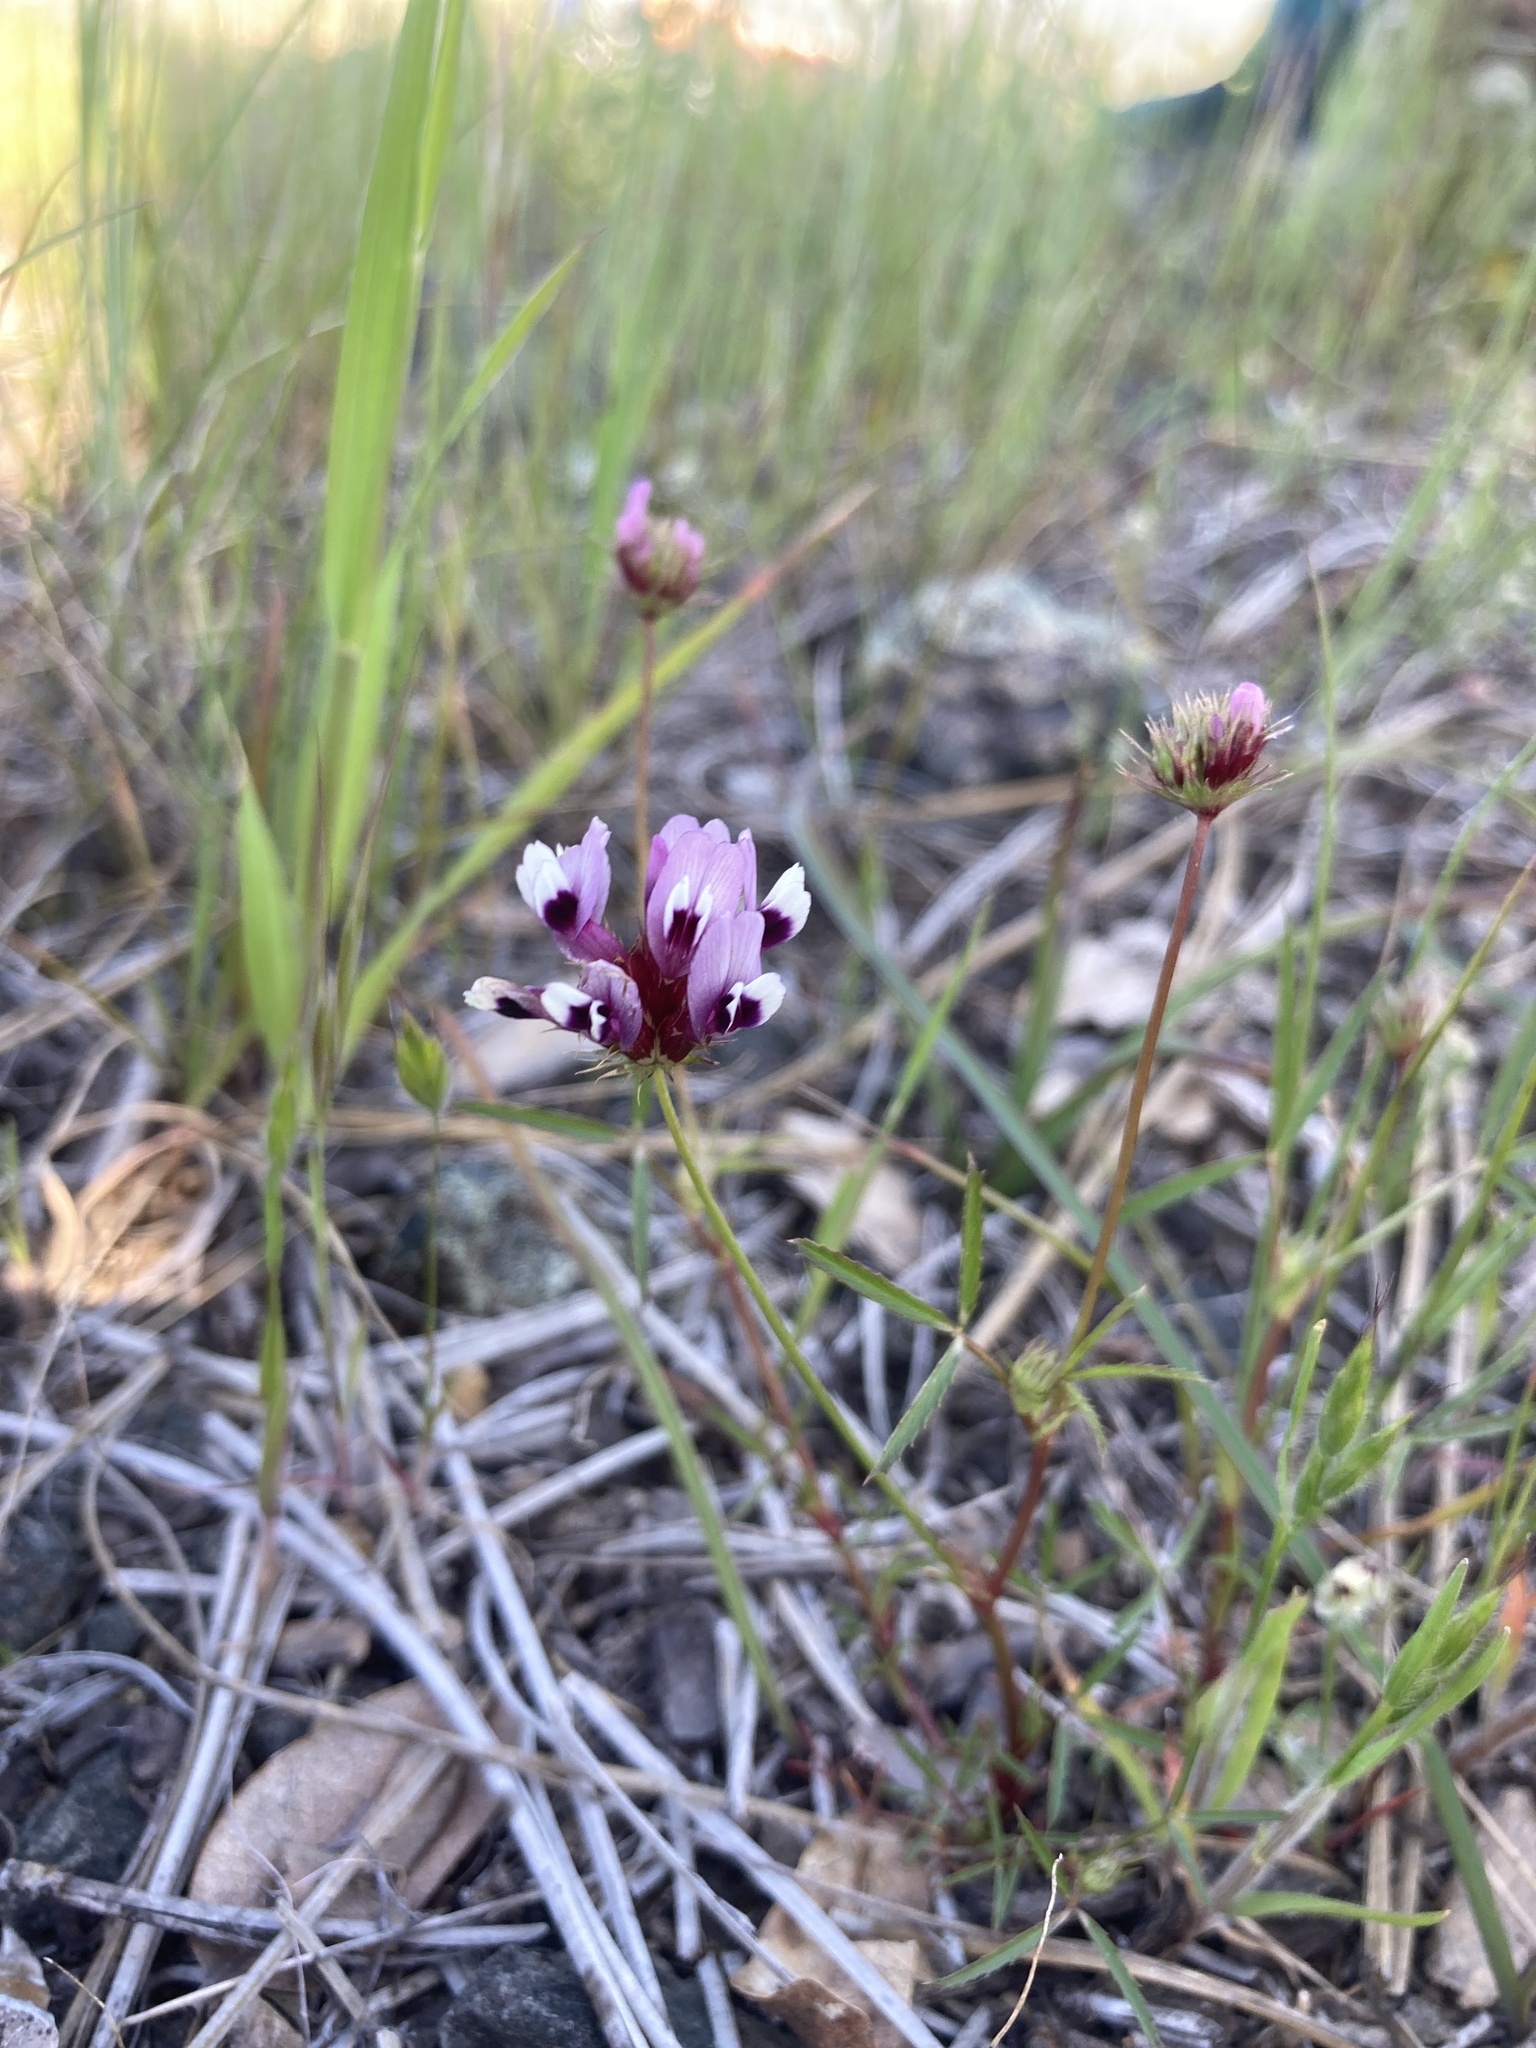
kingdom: Plantae
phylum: Tracheophyta
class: Magnoliopsida
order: Fabales
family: Fabaceae
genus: Trifolium
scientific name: Trifolium willdenovii
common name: Tomcat clover
